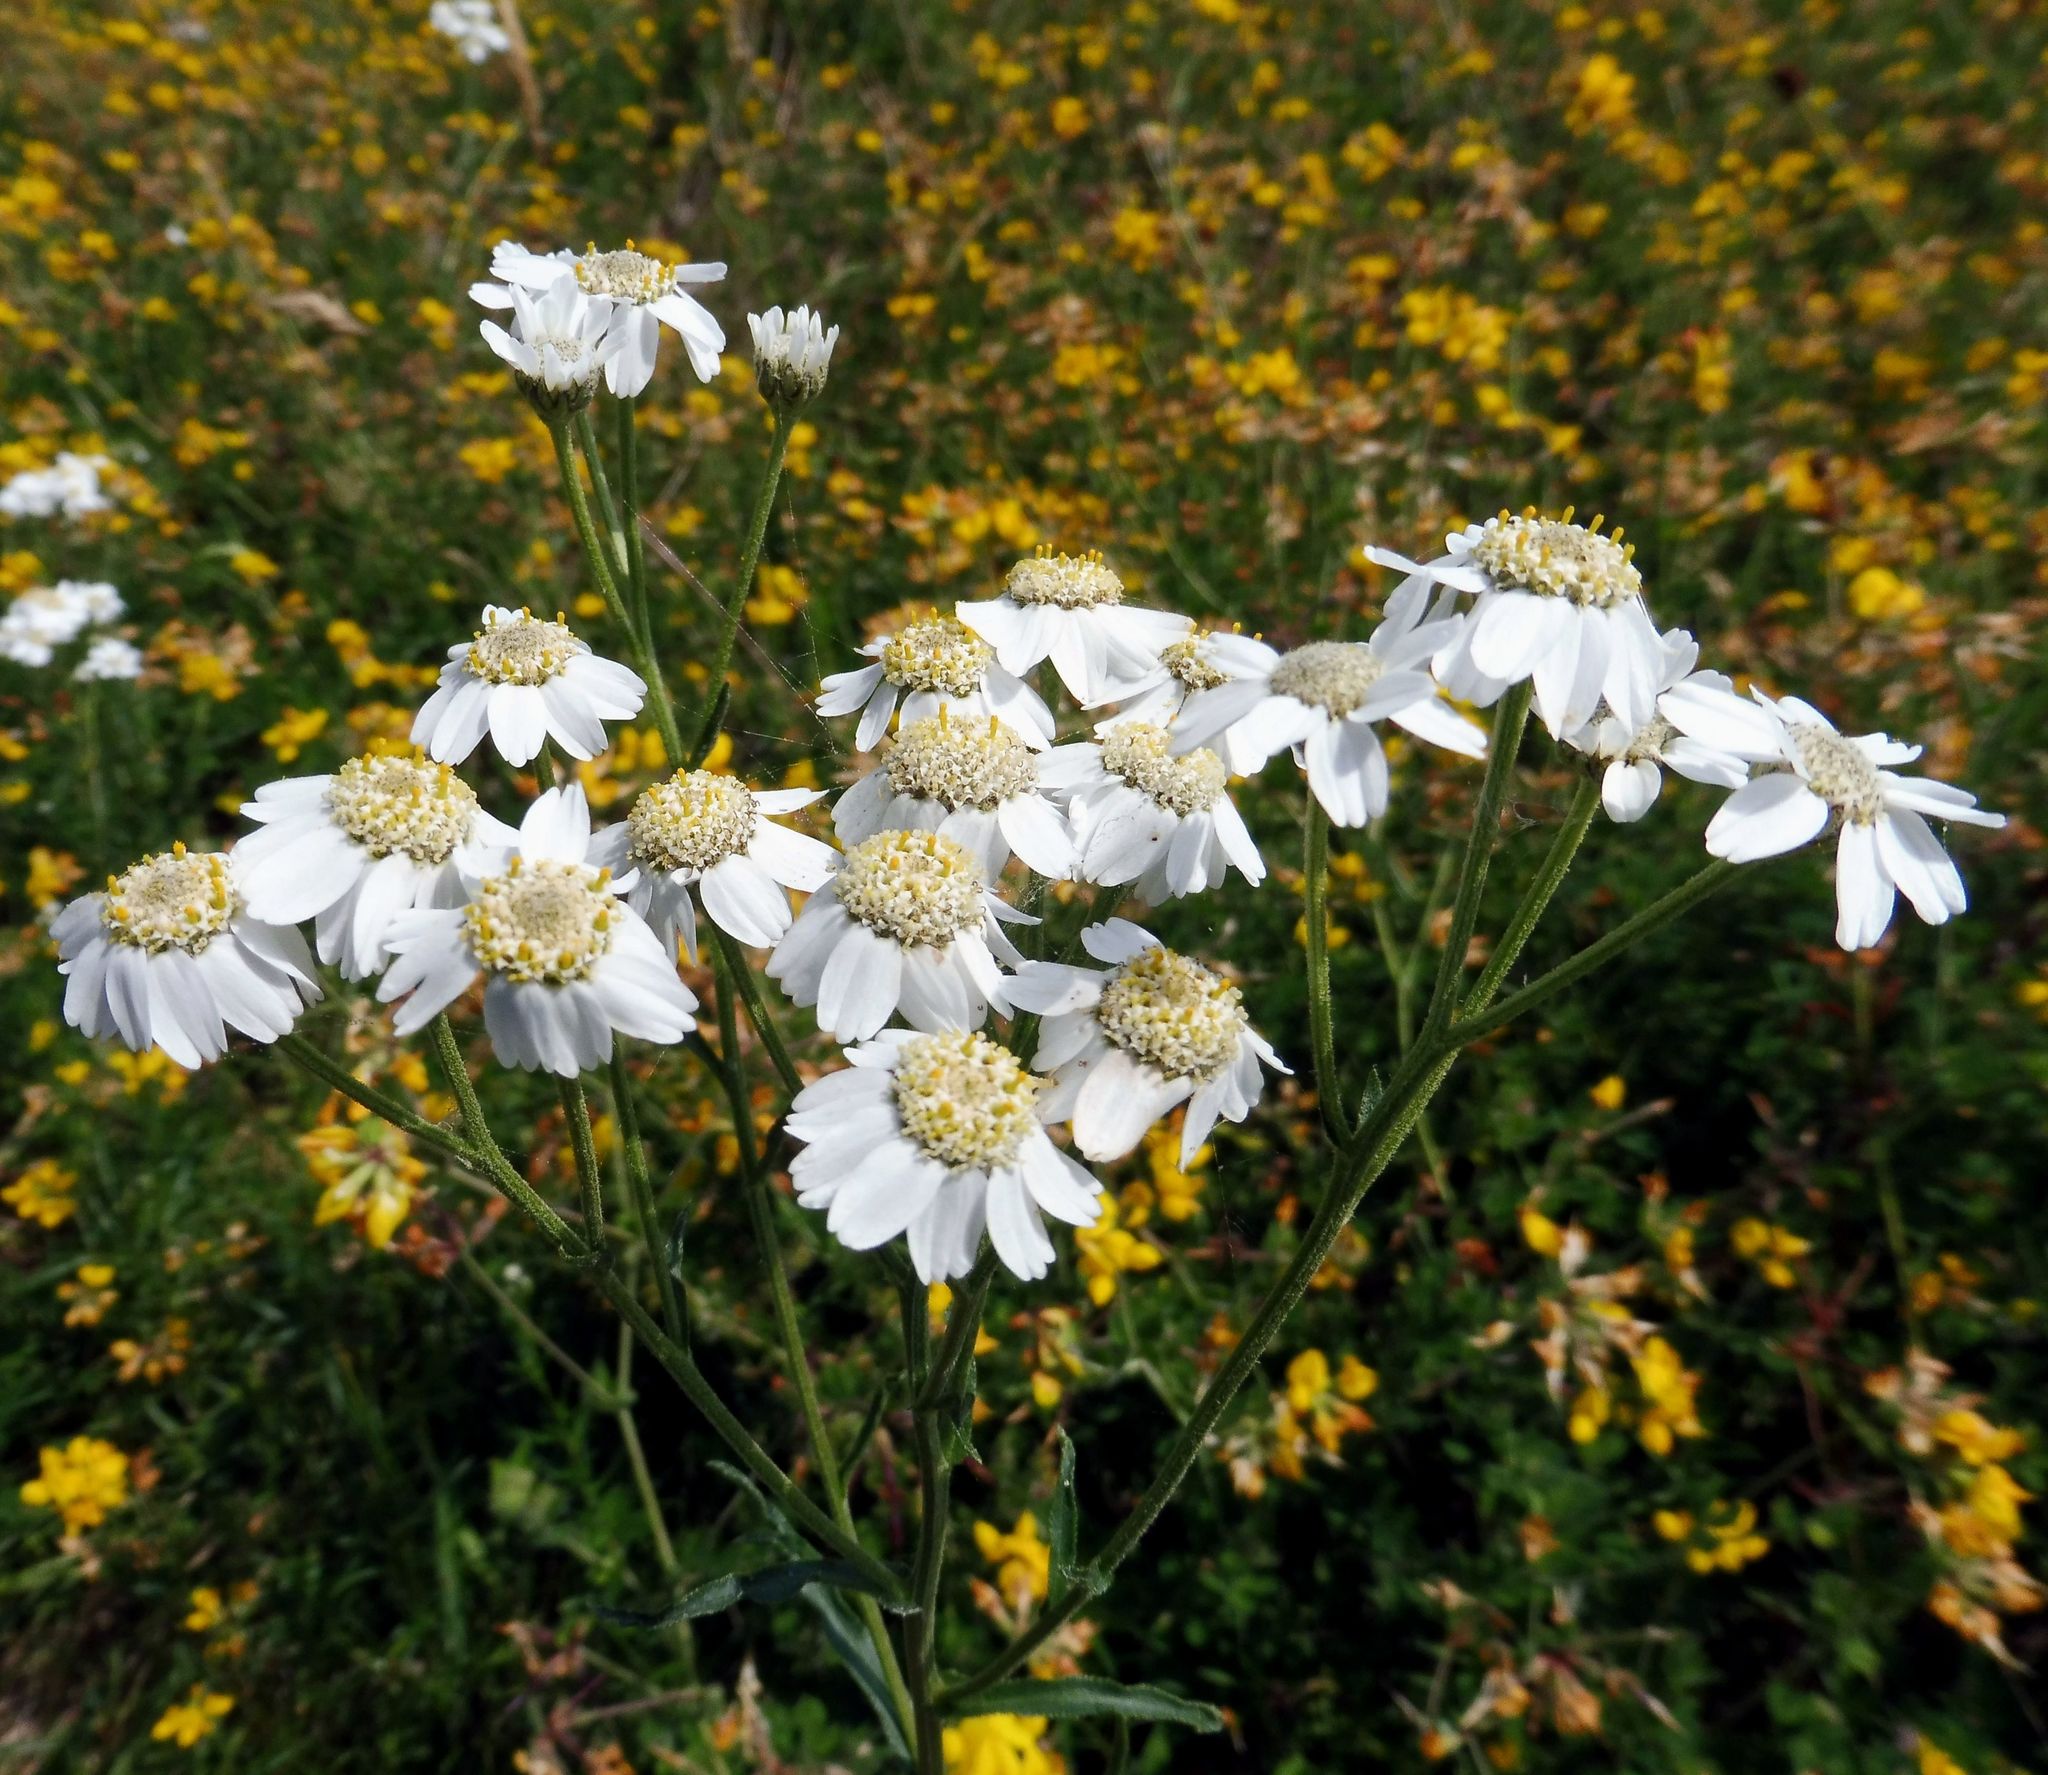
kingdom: Plantae
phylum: Tracheophyta
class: Magnoliopsida
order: Asterales
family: Asteraceae
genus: Achillea
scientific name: Achillea ptarmica
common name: Sneezeweed
